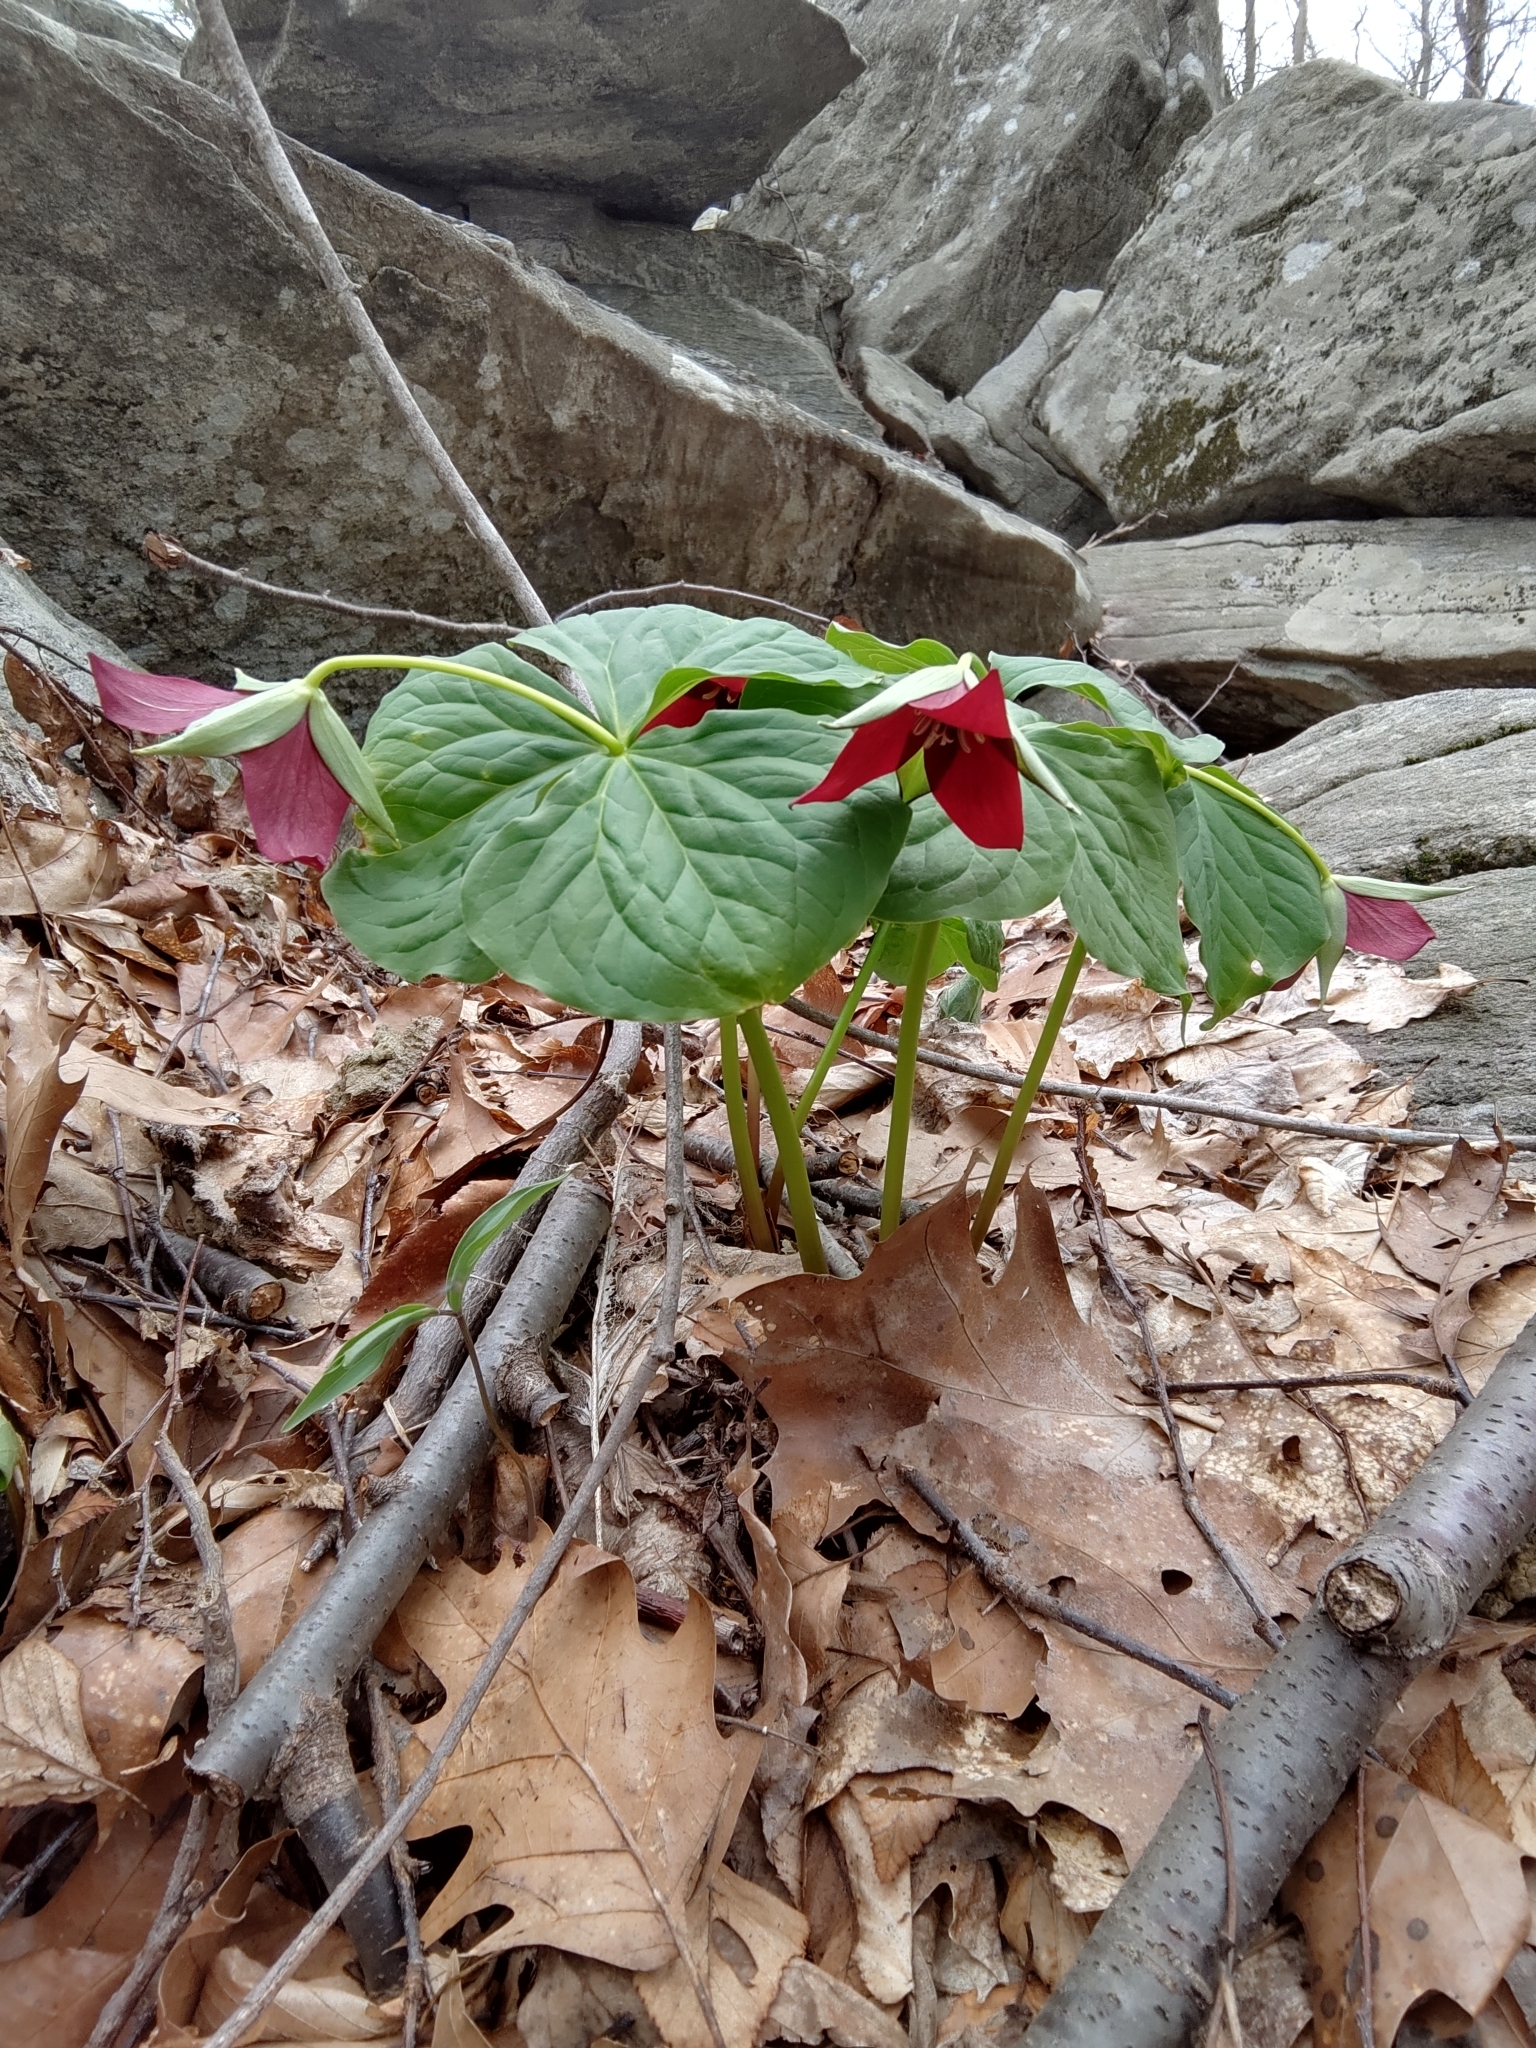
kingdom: Plantae
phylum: Tracheophyta
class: Liliopsida
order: Liliales
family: Melanthiaceae
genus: Trillium
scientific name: Trillium erectum
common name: Purple trillium
